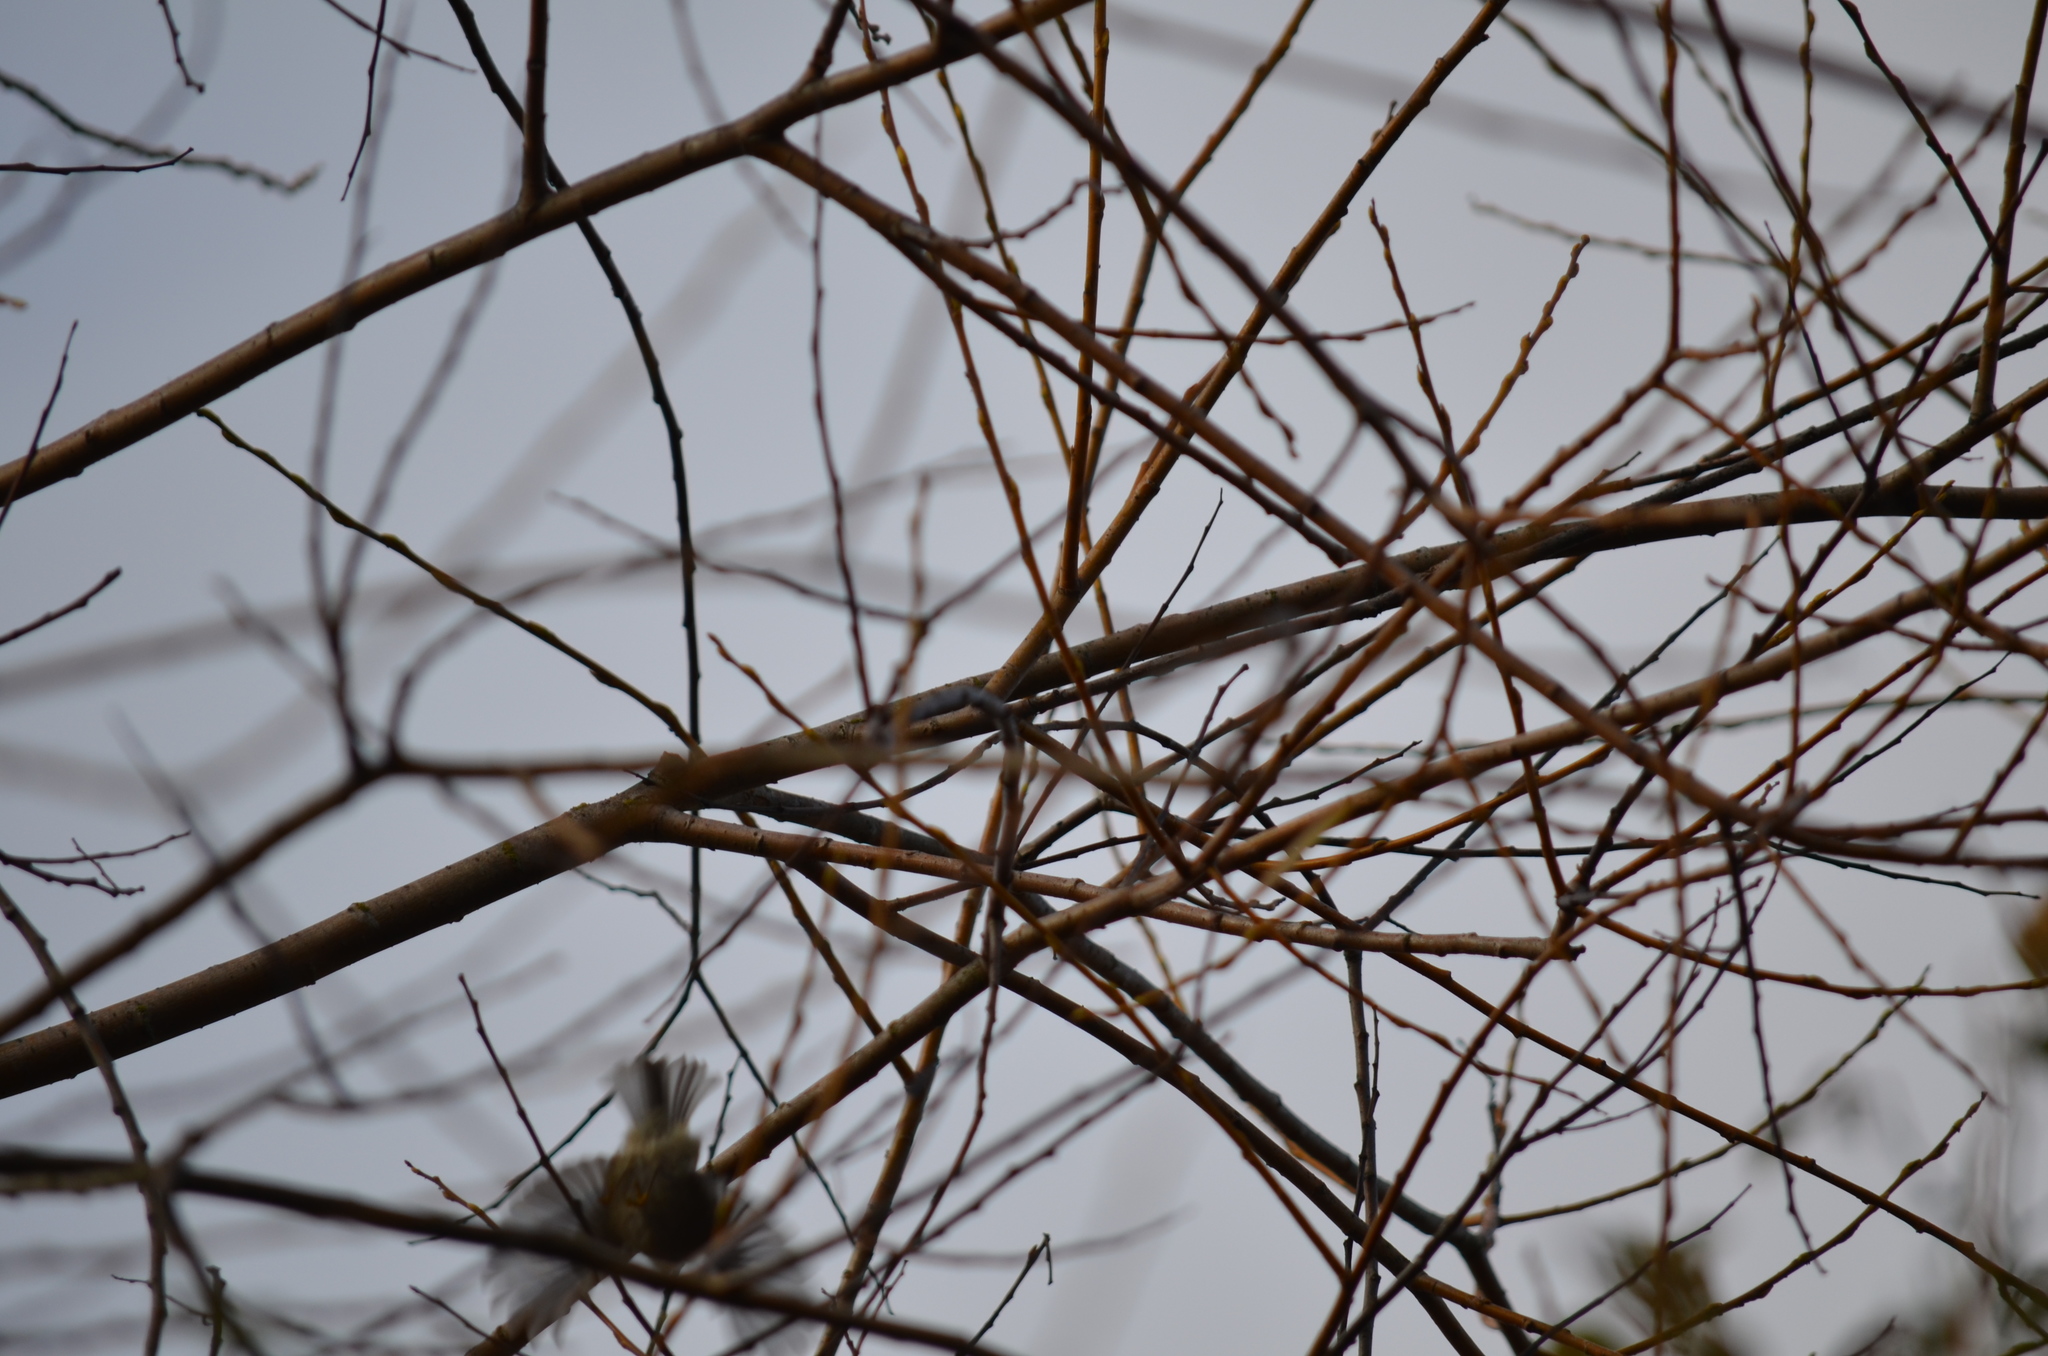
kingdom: Animalia
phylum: Chordata
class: Aves
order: Passeriformes
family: Regulidae
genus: Regulus
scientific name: Regulus satrapa
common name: Golden-crowned kinglet
